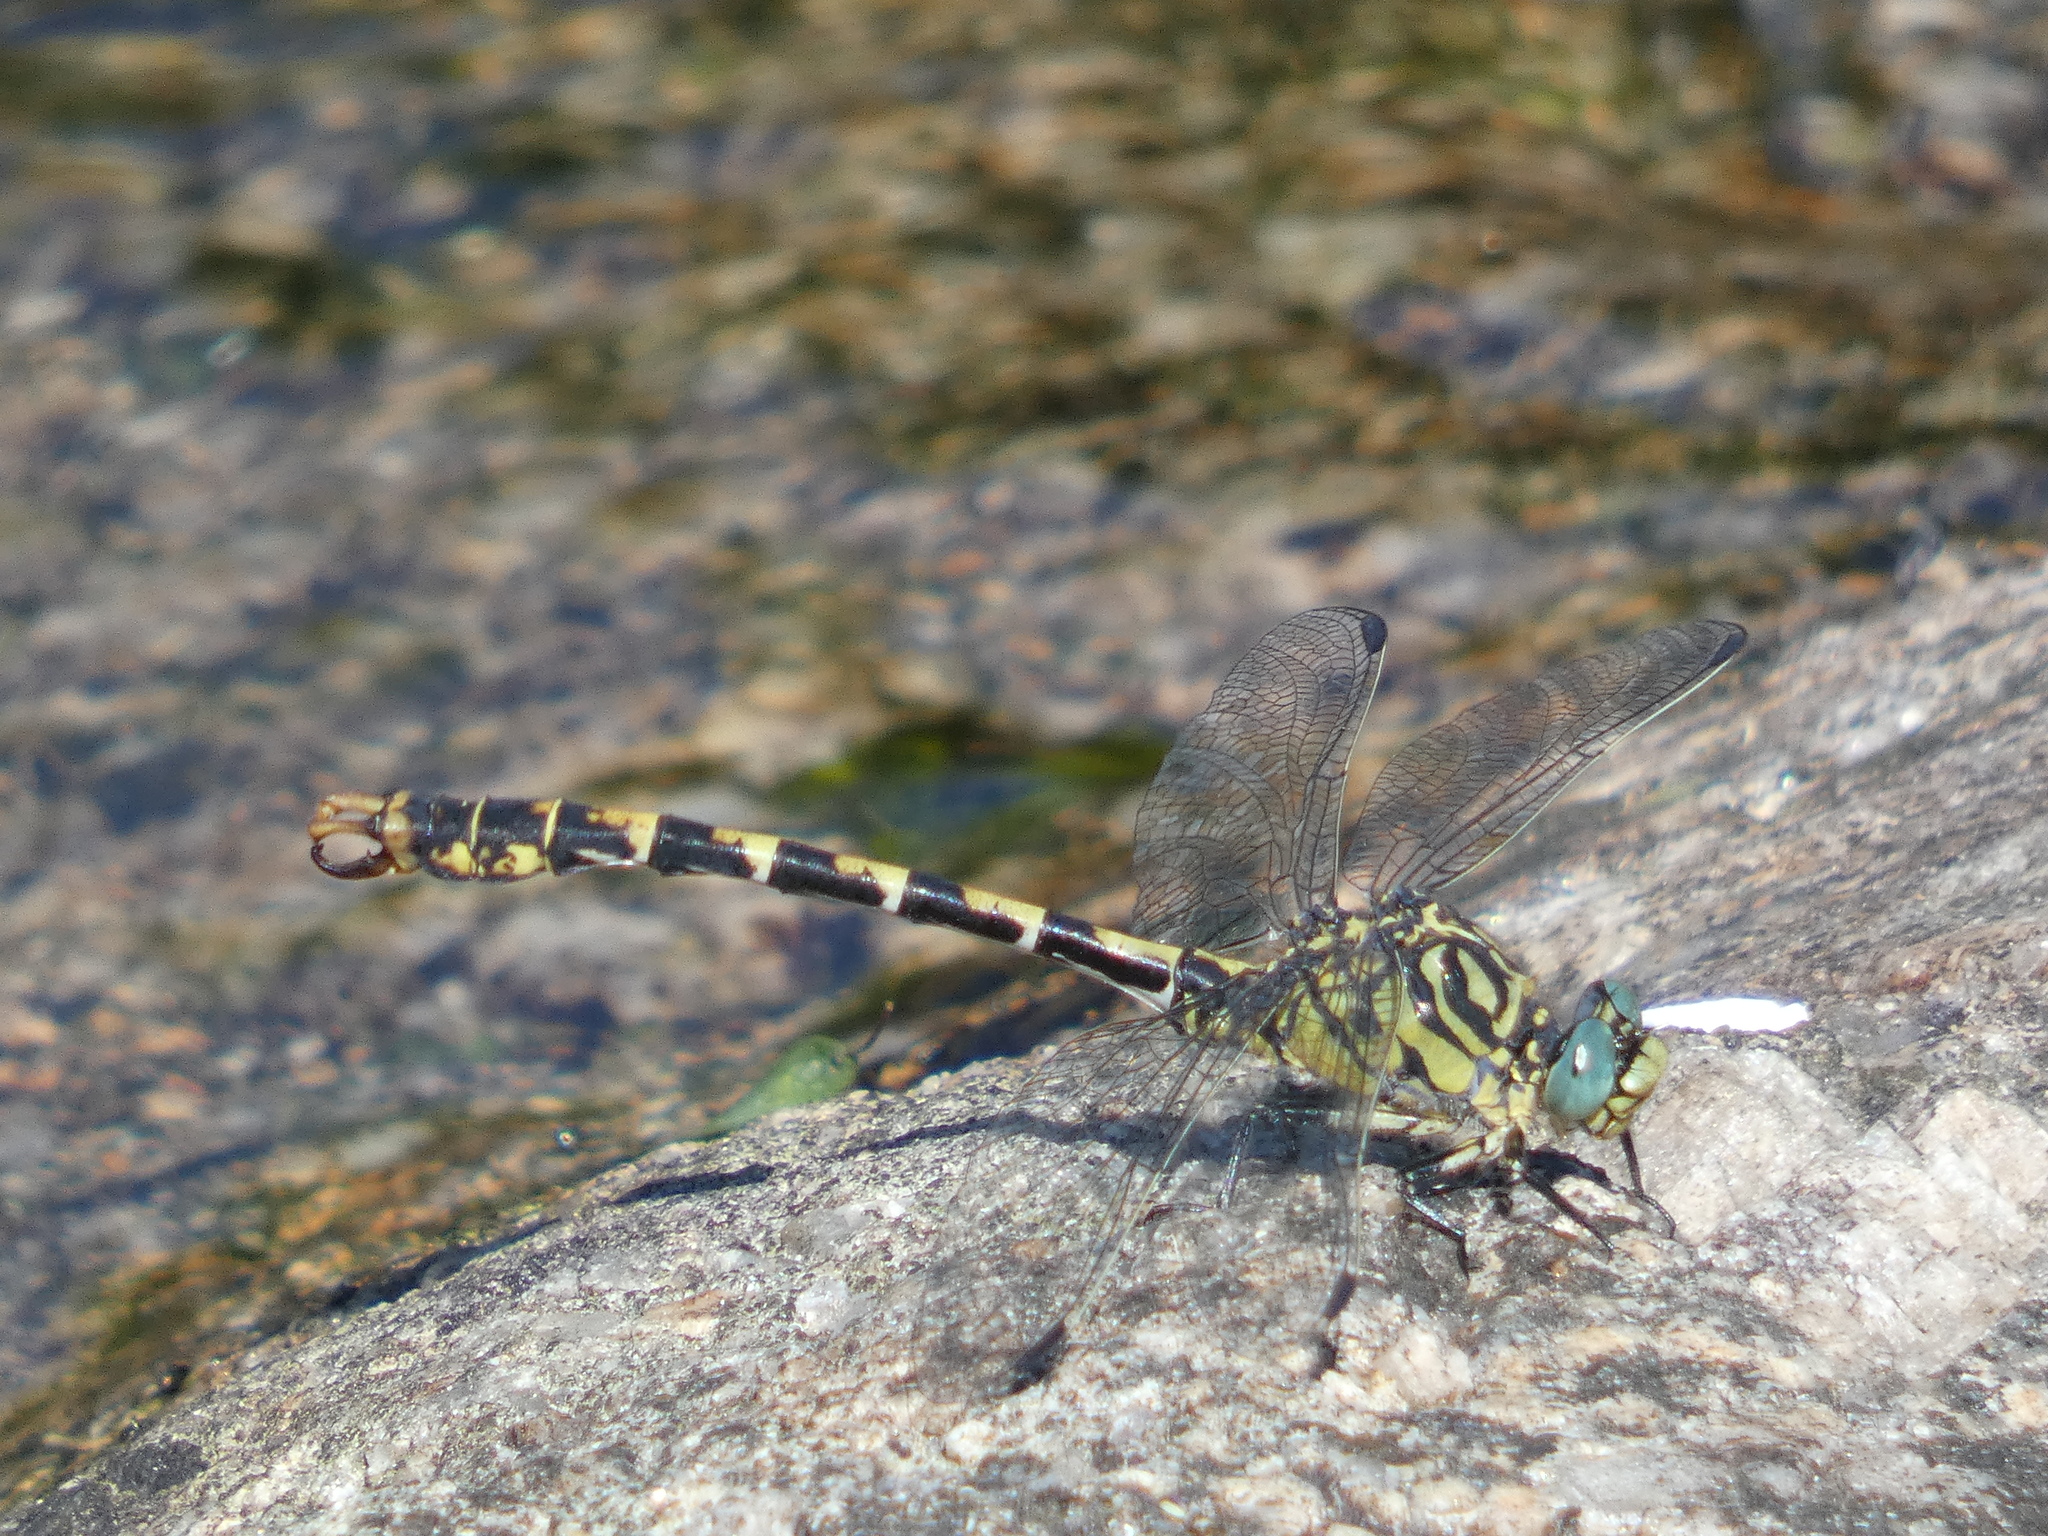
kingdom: Animalia
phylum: Arthropoda
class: Insecta
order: Odonata
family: Gomphidae
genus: Onychogomphus
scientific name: Onychogomphus forcipatus
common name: Small pincertail
